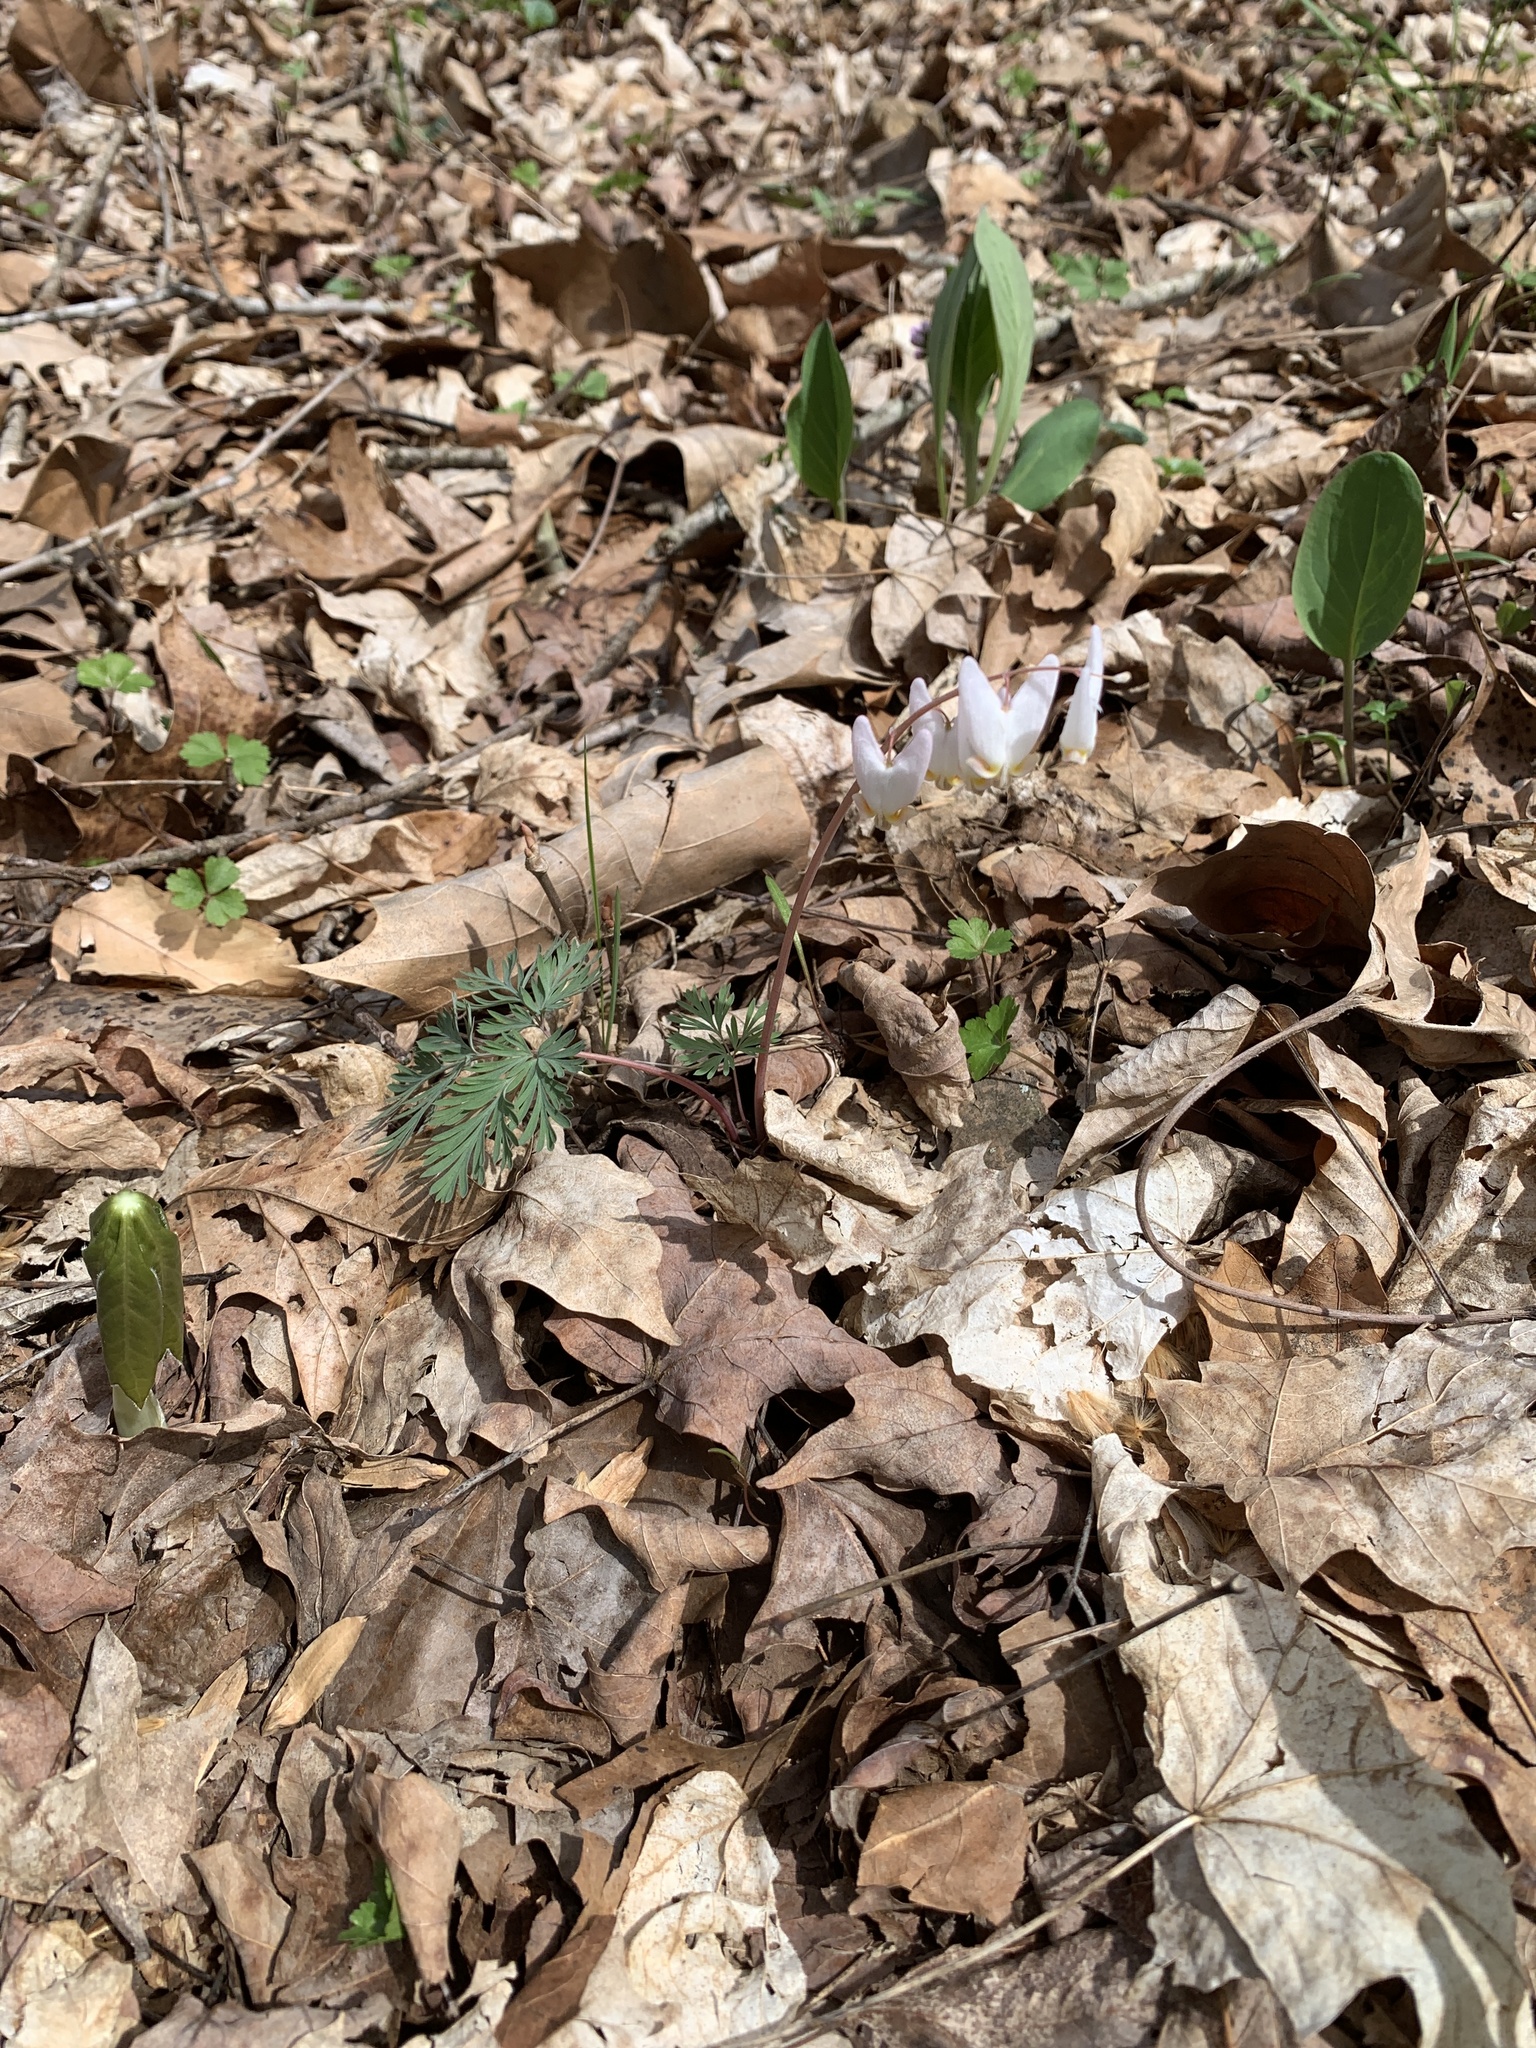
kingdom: Plantae
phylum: Tracheophyta
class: Magnoliopsida
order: Ranunculales
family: Papaveraceae
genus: Dicentra
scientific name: Dicentra cucullaria
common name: Dutchman's breeches
